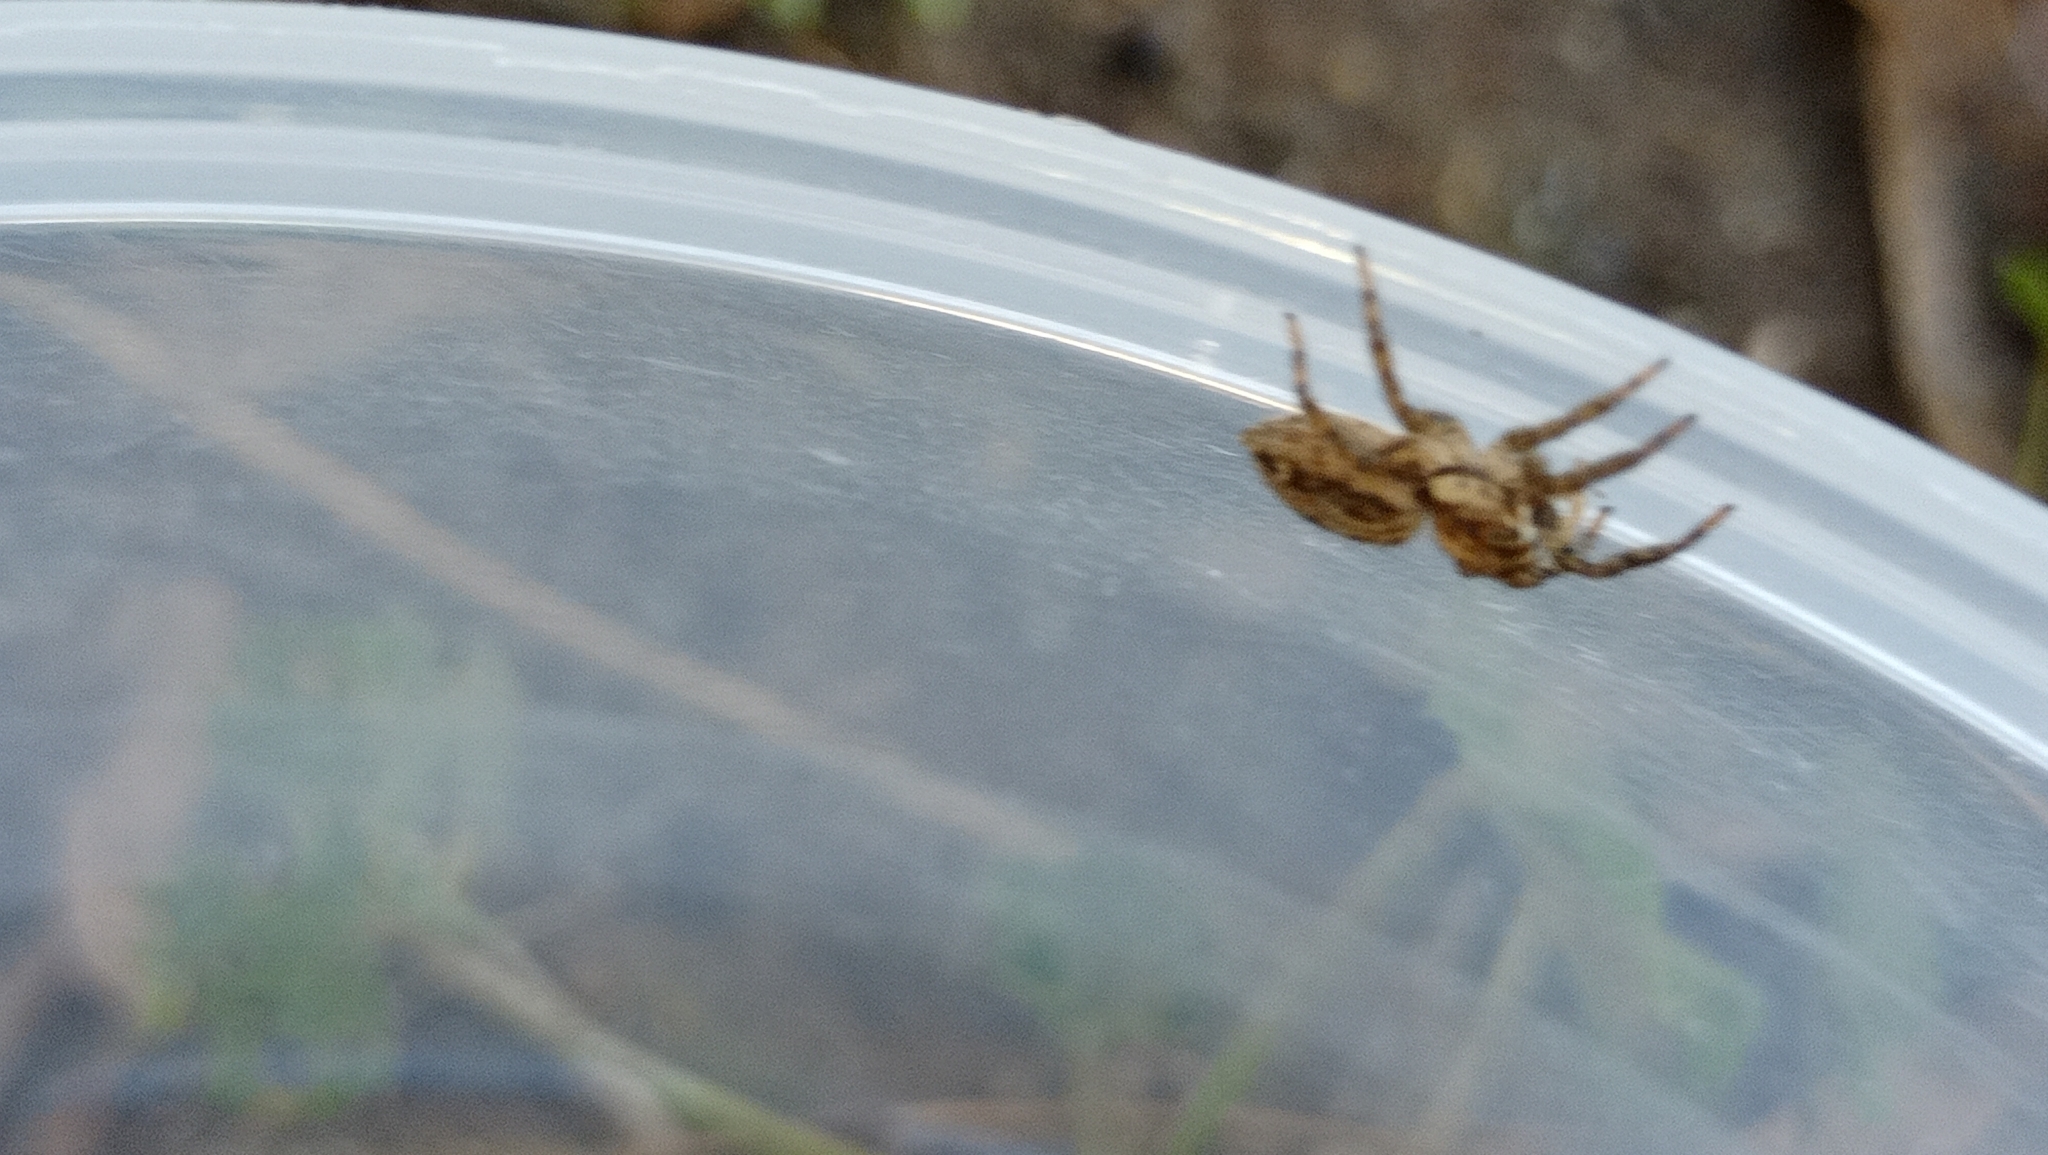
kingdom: Animalia
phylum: Arthropoda
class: Arachnida
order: Araneae
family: Salticidae
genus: Plexippus
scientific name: Plexippus paykulli
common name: Pantropical jumper
